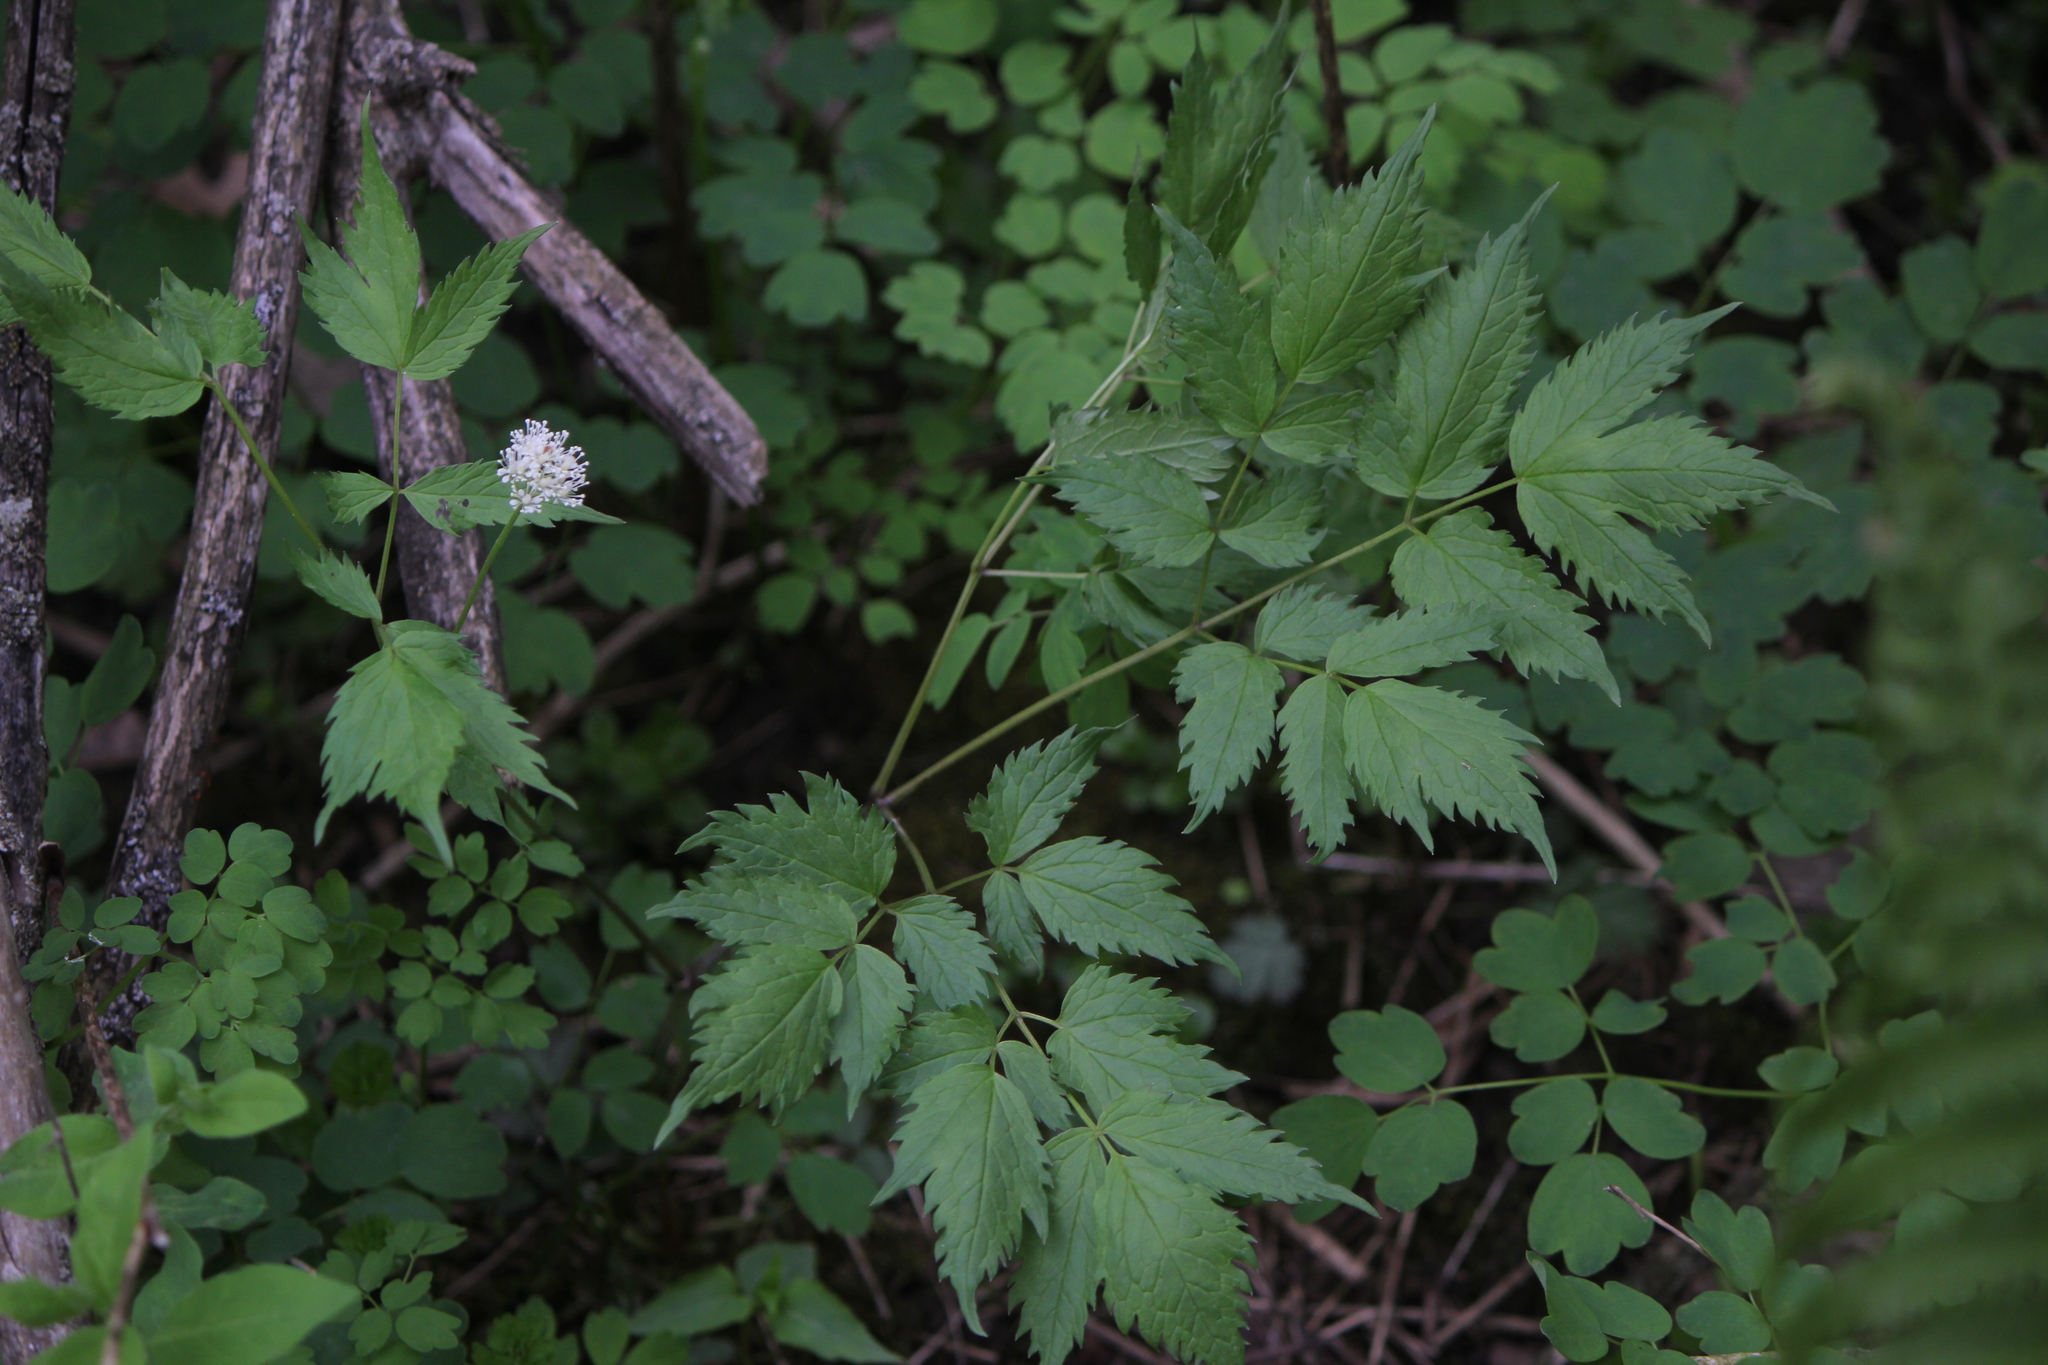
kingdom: Plantae
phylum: Tracheophyta
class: Magnoliopsida
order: Ranunculales
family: Ranunculaceae
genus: Actaea
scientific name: Actaea rubra
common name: Red baneberry
